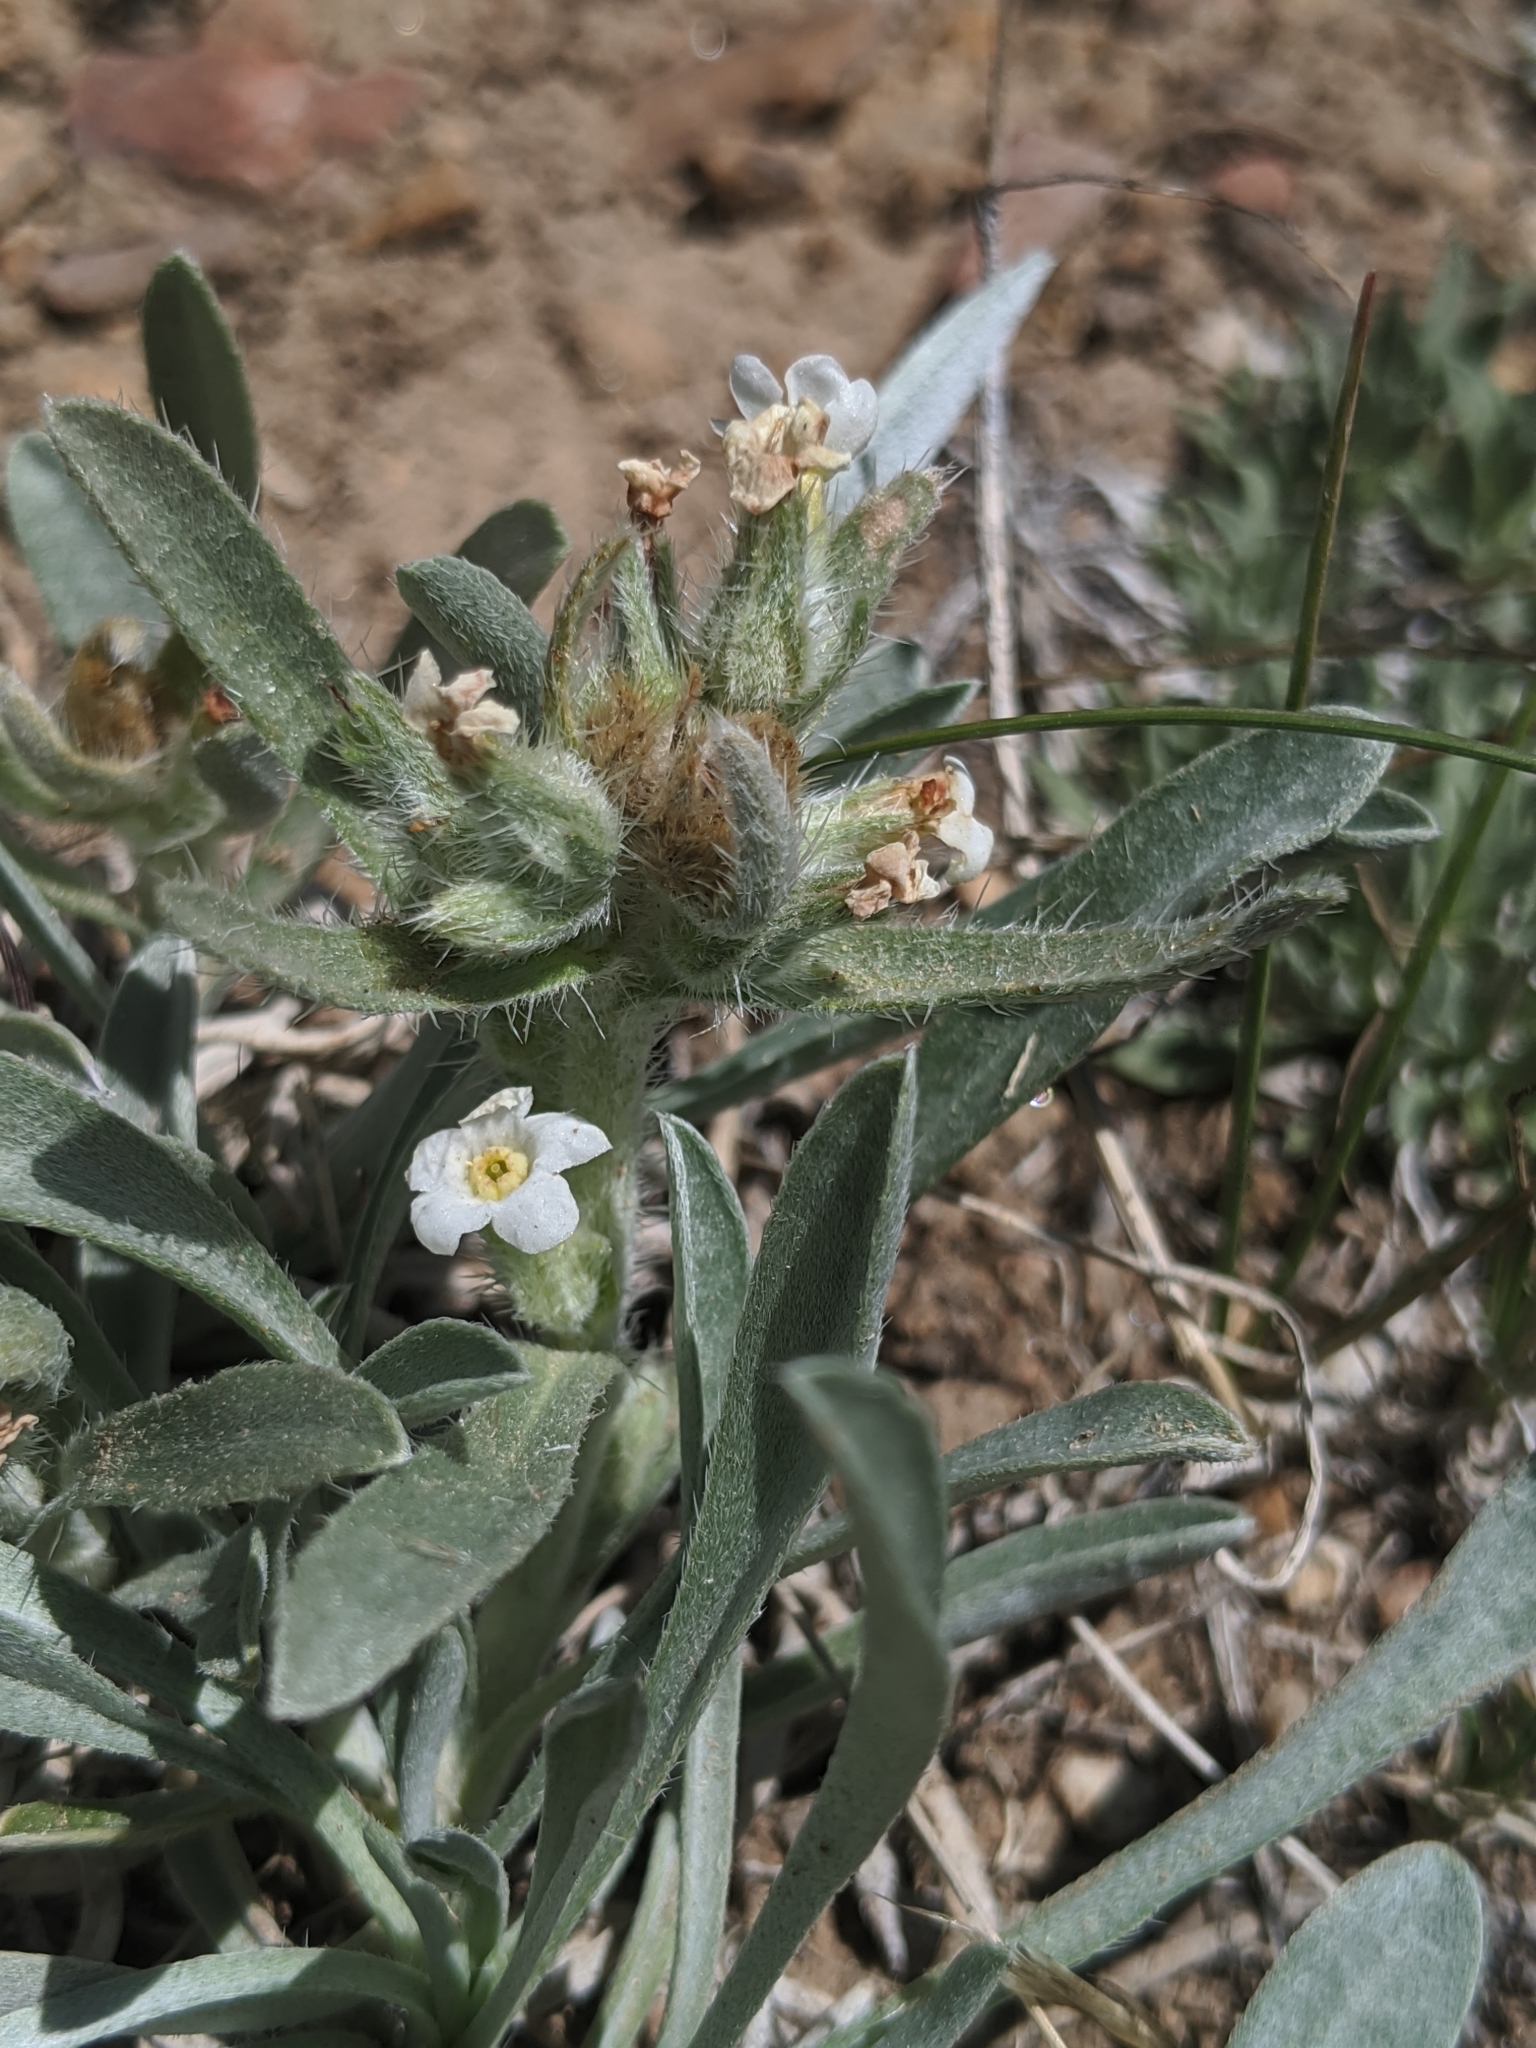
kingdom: Plantae
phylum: Tracheophyta
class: Magnoliopsida
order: Boraginales
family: Boraginaceae
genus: Oreocarya
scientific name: Oreocarya flavoculata
